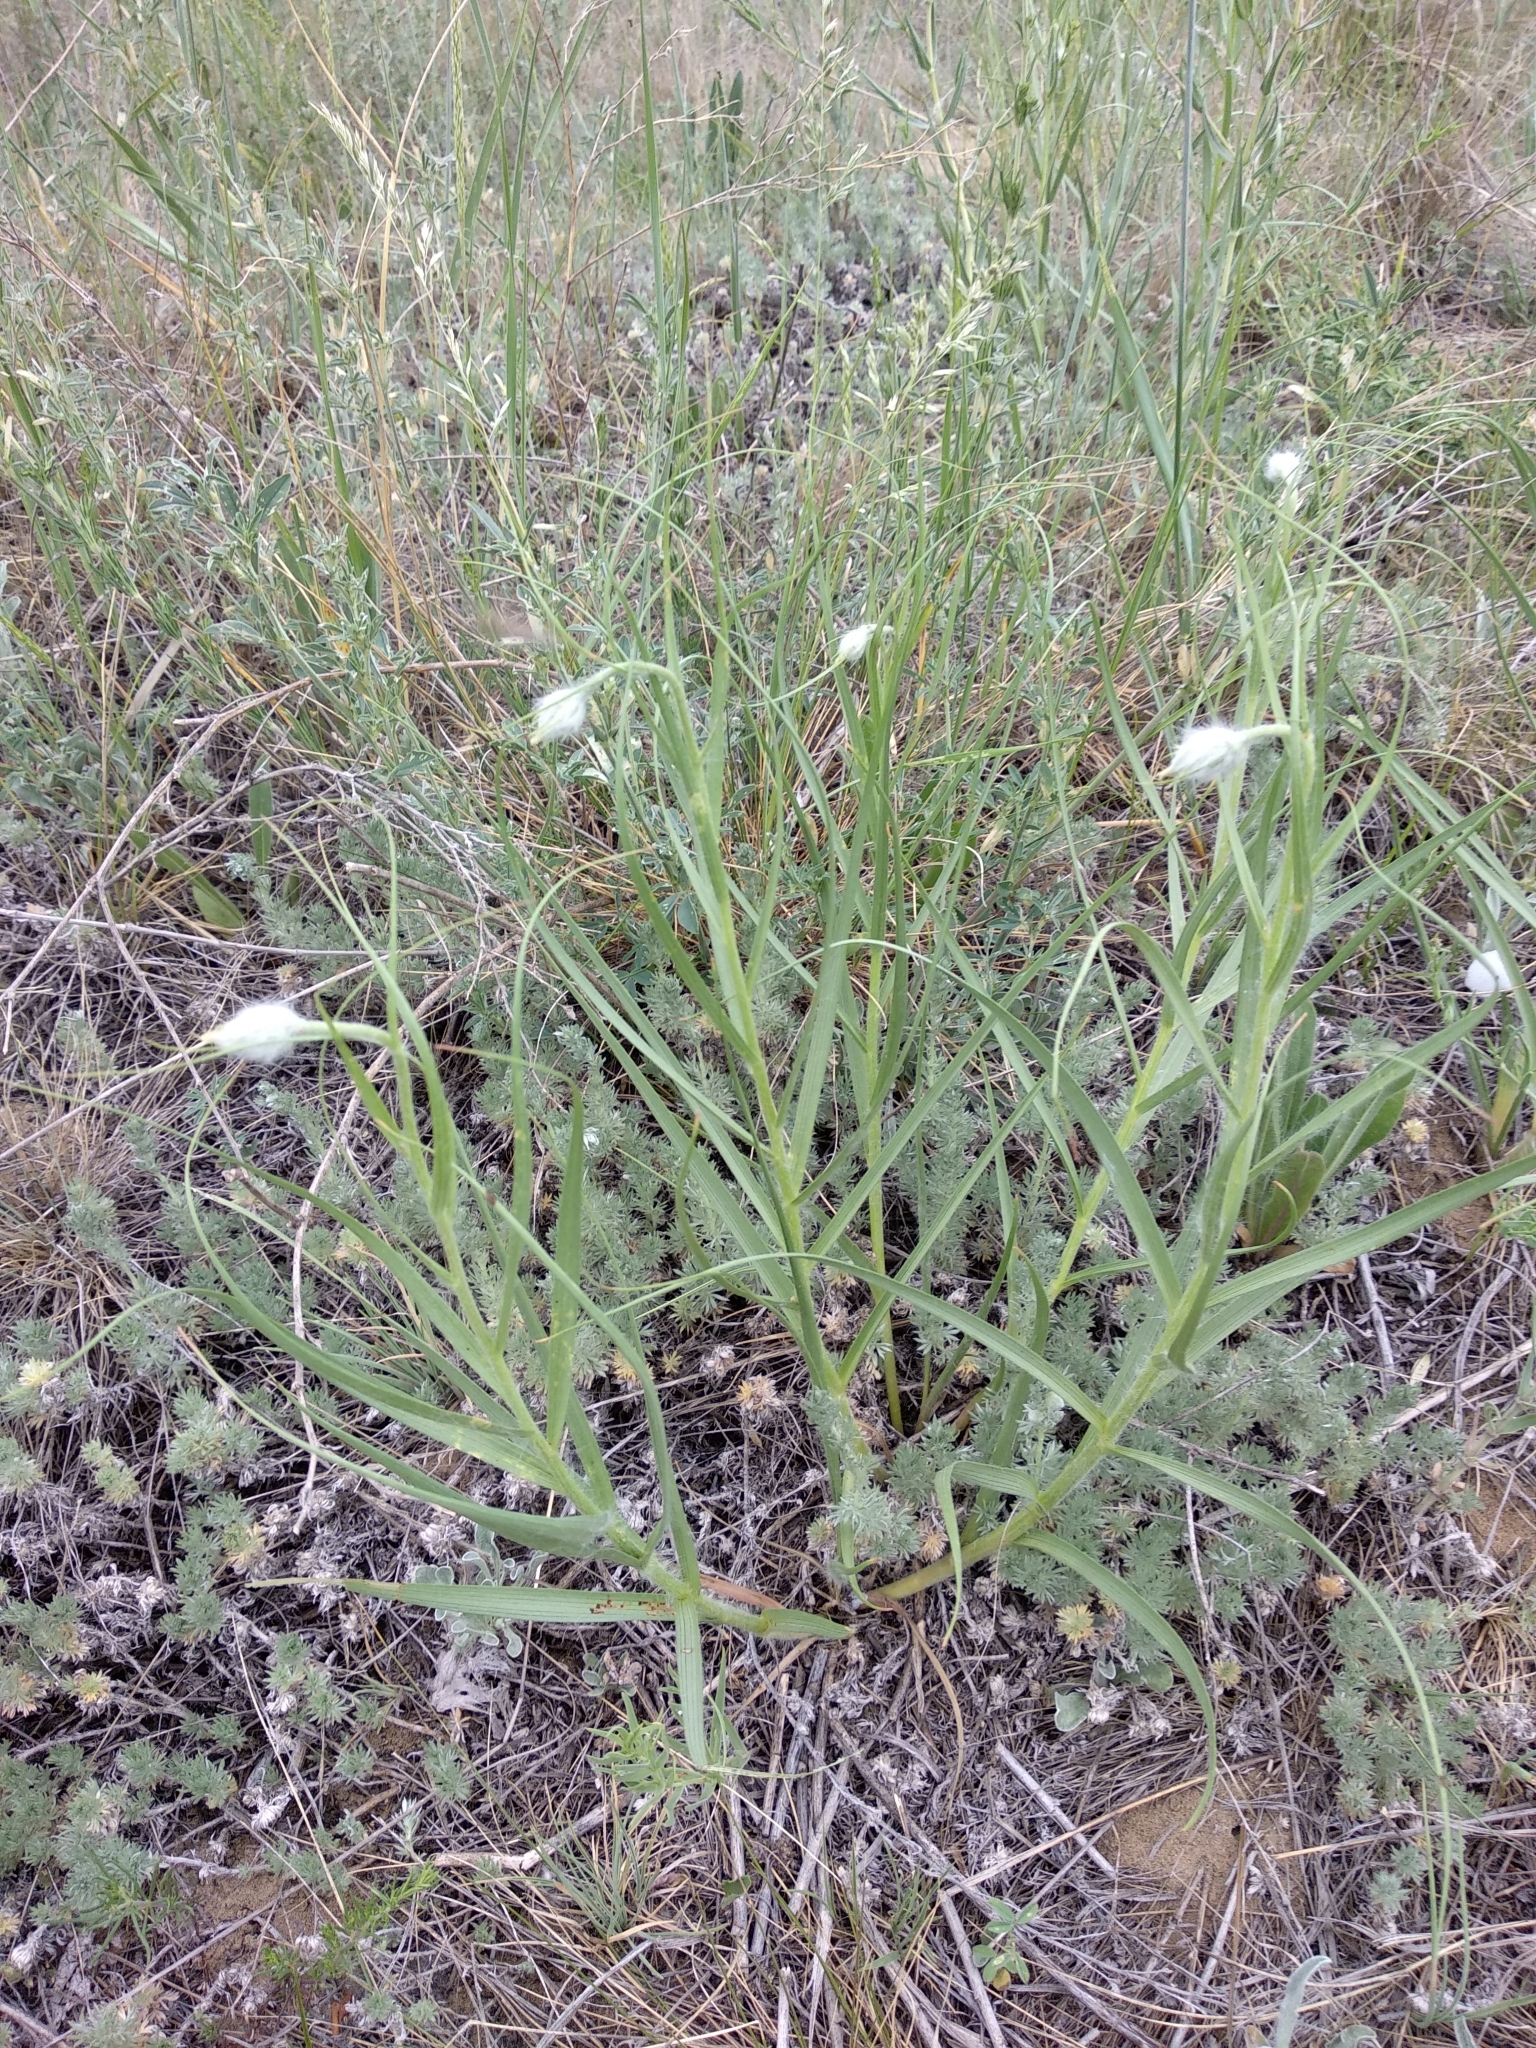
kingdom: Plantae
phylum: Tracheophyta
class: Magnoliopsida
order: Asterales
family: Asteraceae
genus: Gelasia
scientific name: Gelasia ensifolia
